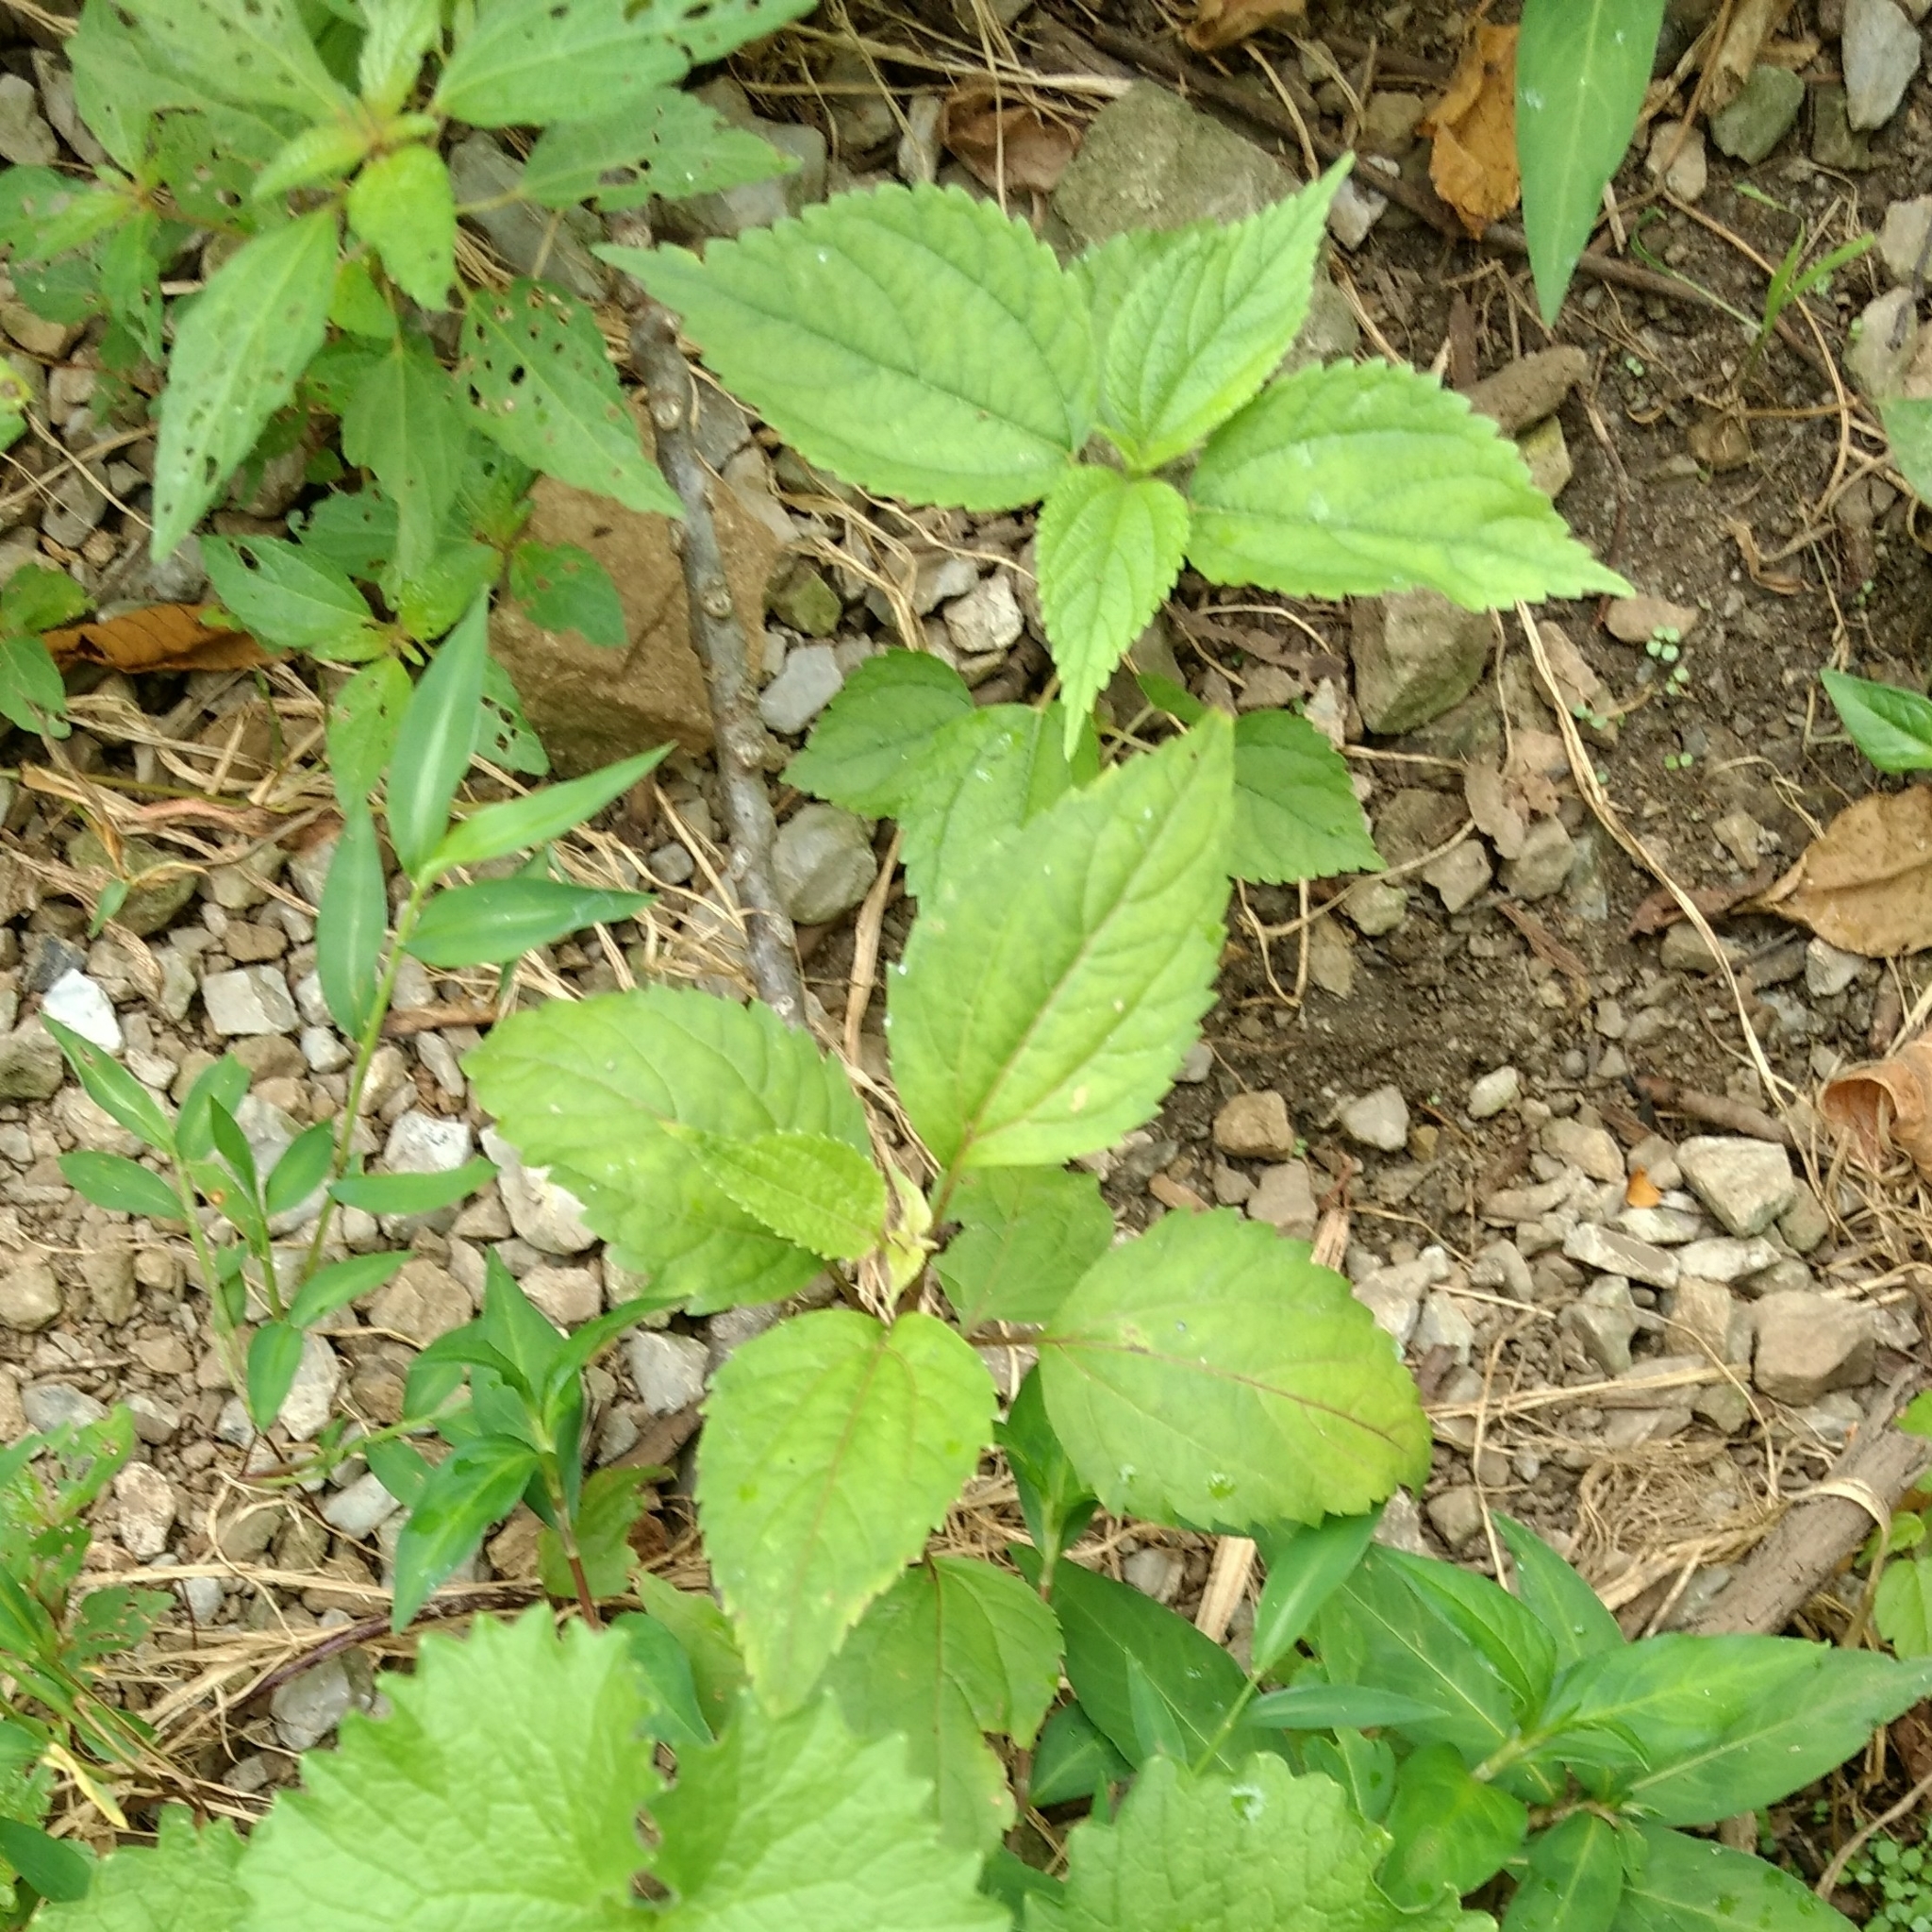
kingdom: Plantae
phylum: Tracheophyta
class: Magnoliopsida
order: Rosales
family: Urticaceae
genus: Boehmeria
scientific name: Boehmeria cylindrica
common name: Bog-hemp
